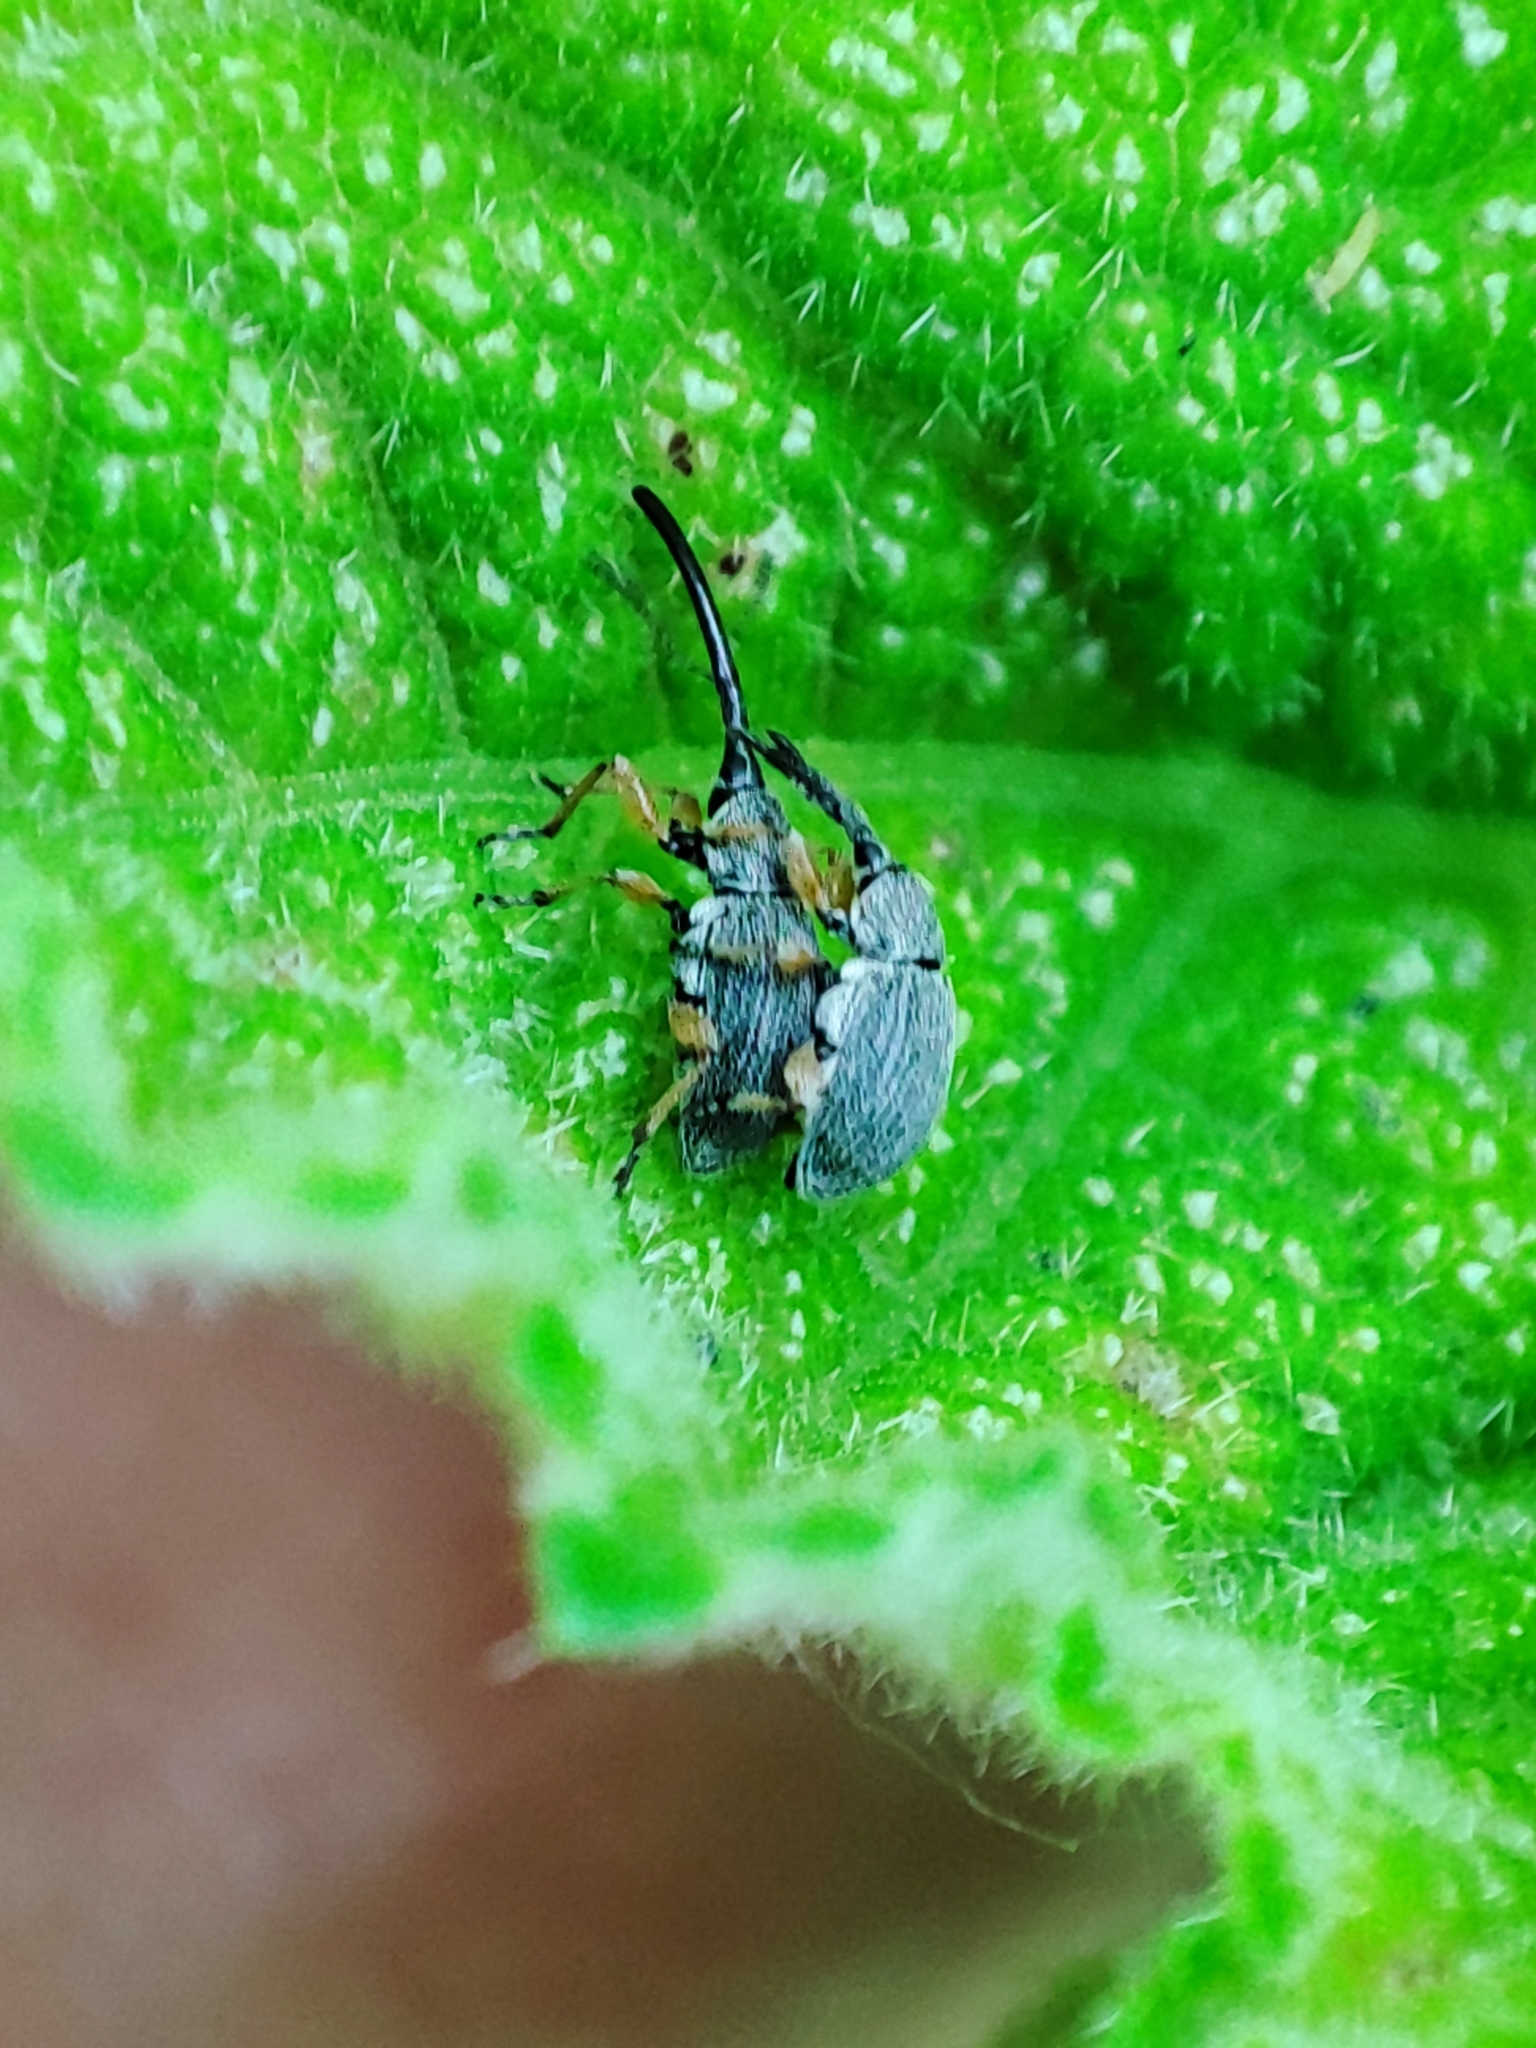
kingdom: Animalia
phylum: Arthropoda
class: Insecta
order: Coleoptera
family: Brentidae
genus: Rhopalapion
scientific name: Rhopalapion longirostre
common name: Hollyhock weevil
